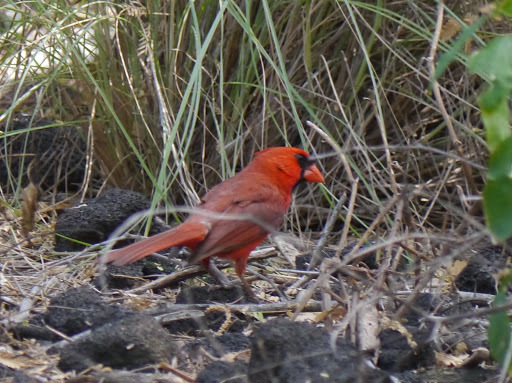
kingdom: Animalia
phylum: Chordata
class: Aves
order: Passeriformes
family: Cardinalidae
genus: Cardinalis
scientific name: Cardinalis cardinalis
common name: Northern cardinal
